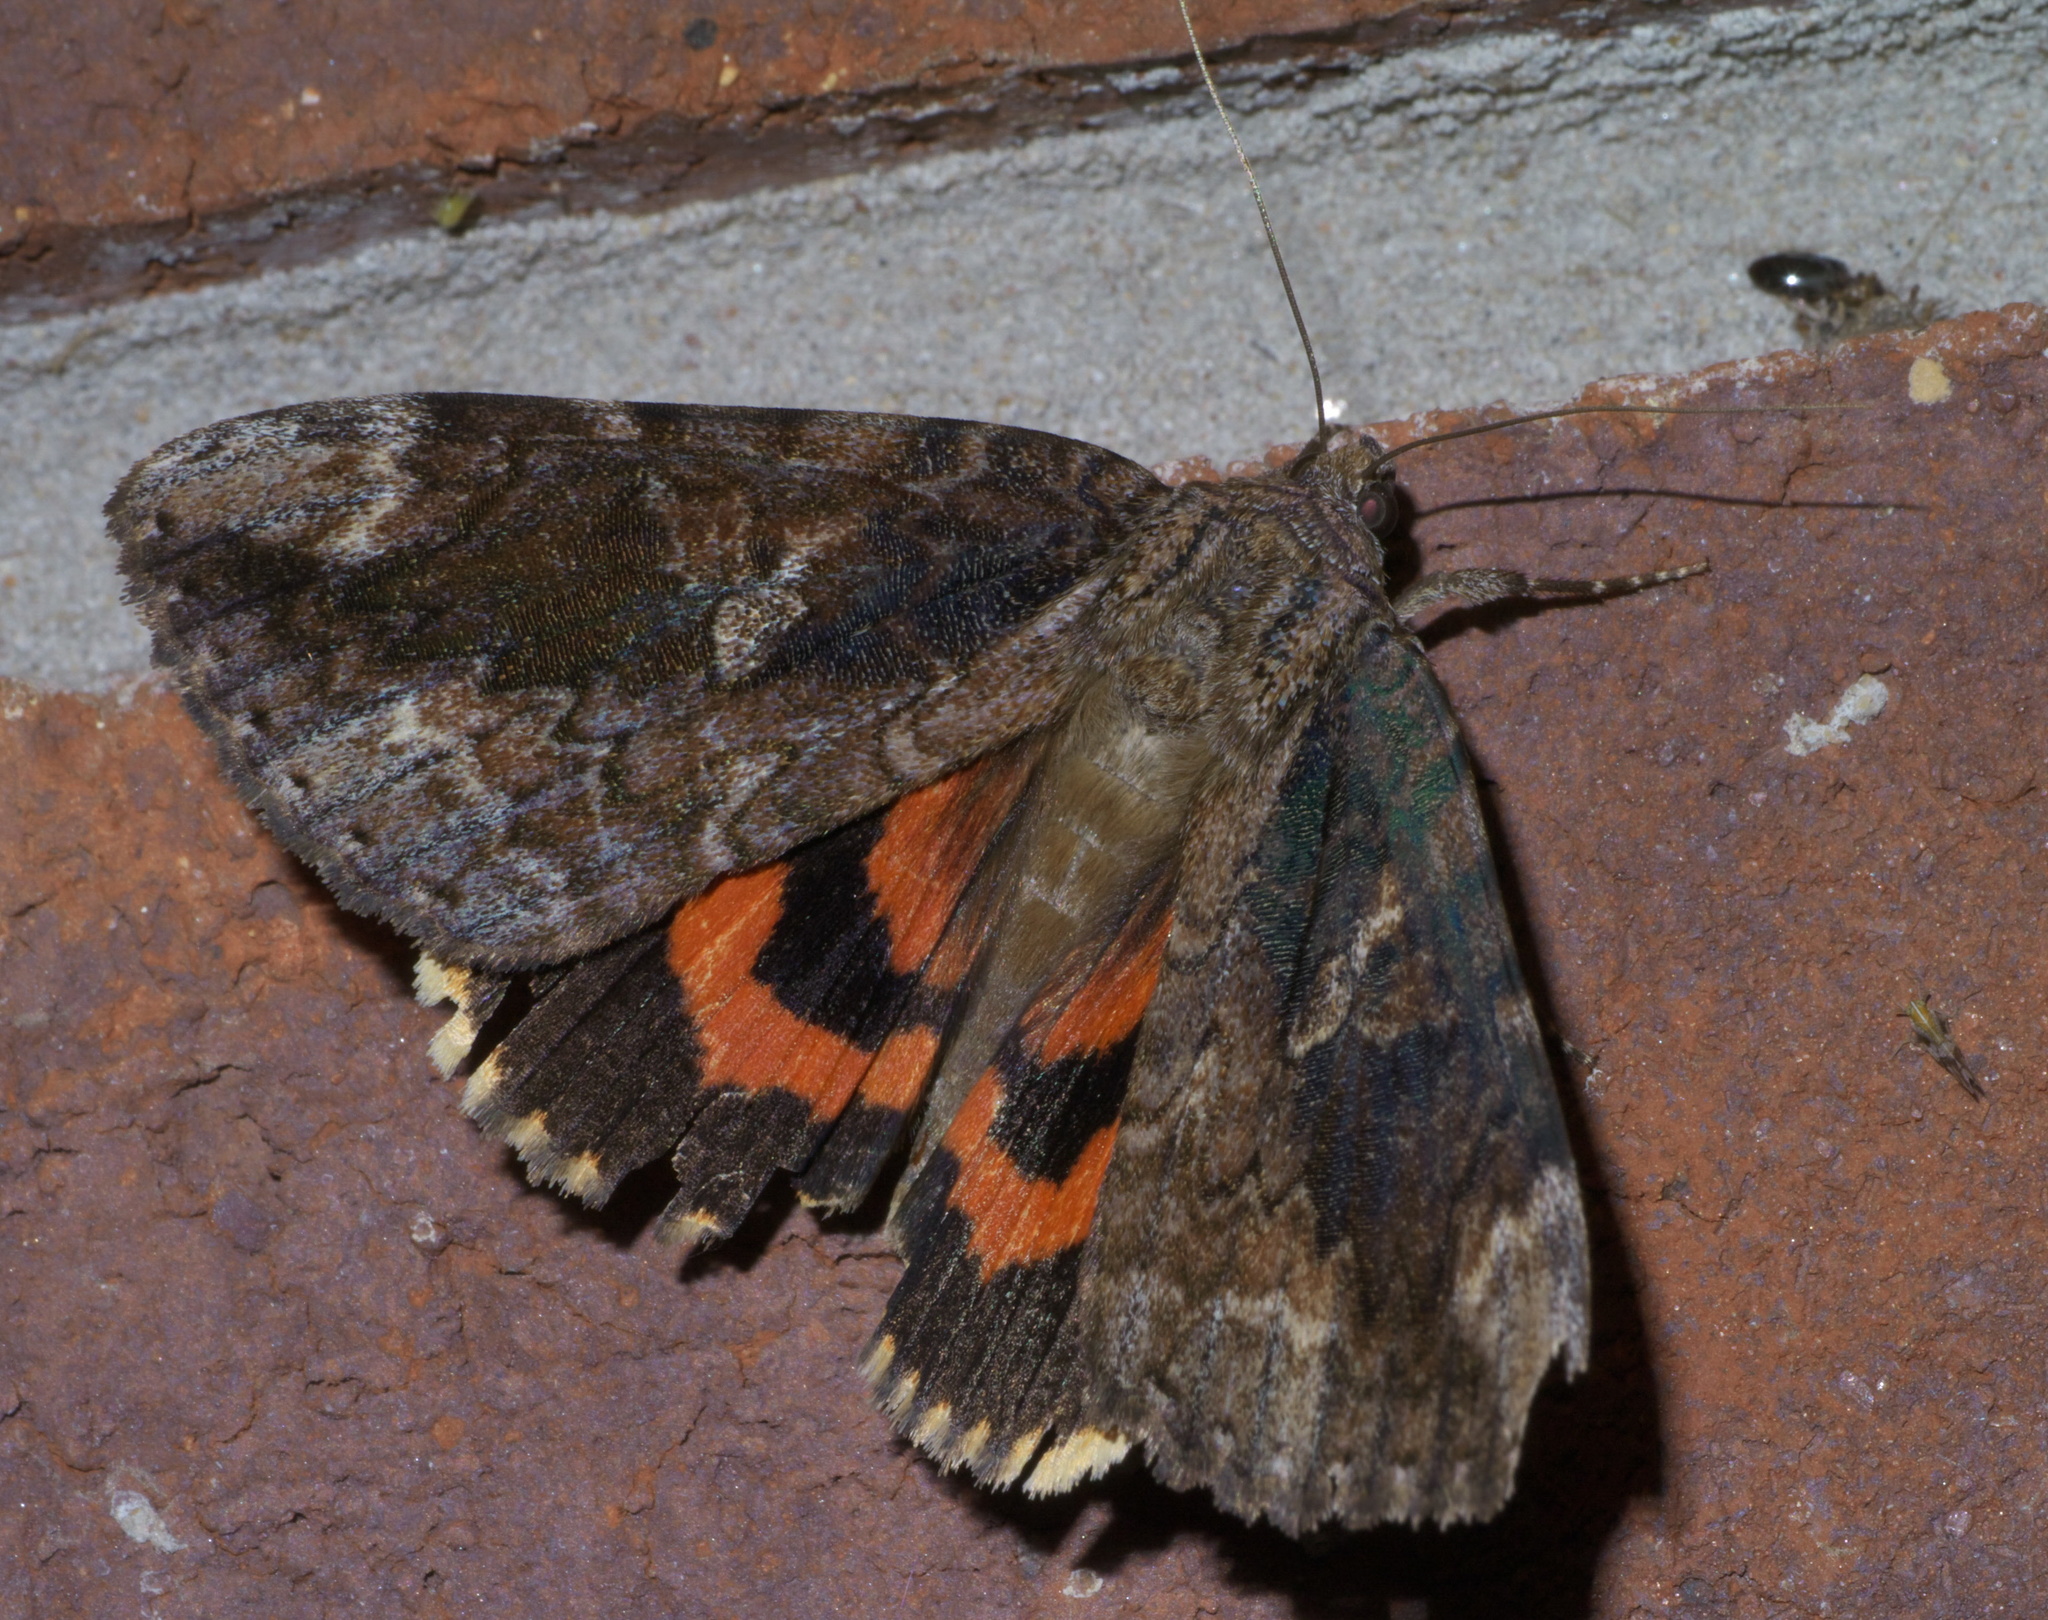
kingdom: Animalia
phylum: Arthropoda
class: Insecta
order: Lepidoptera
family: Erebidae
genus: Catocala
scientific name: Catocala innubens
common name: Betrothed underwing
